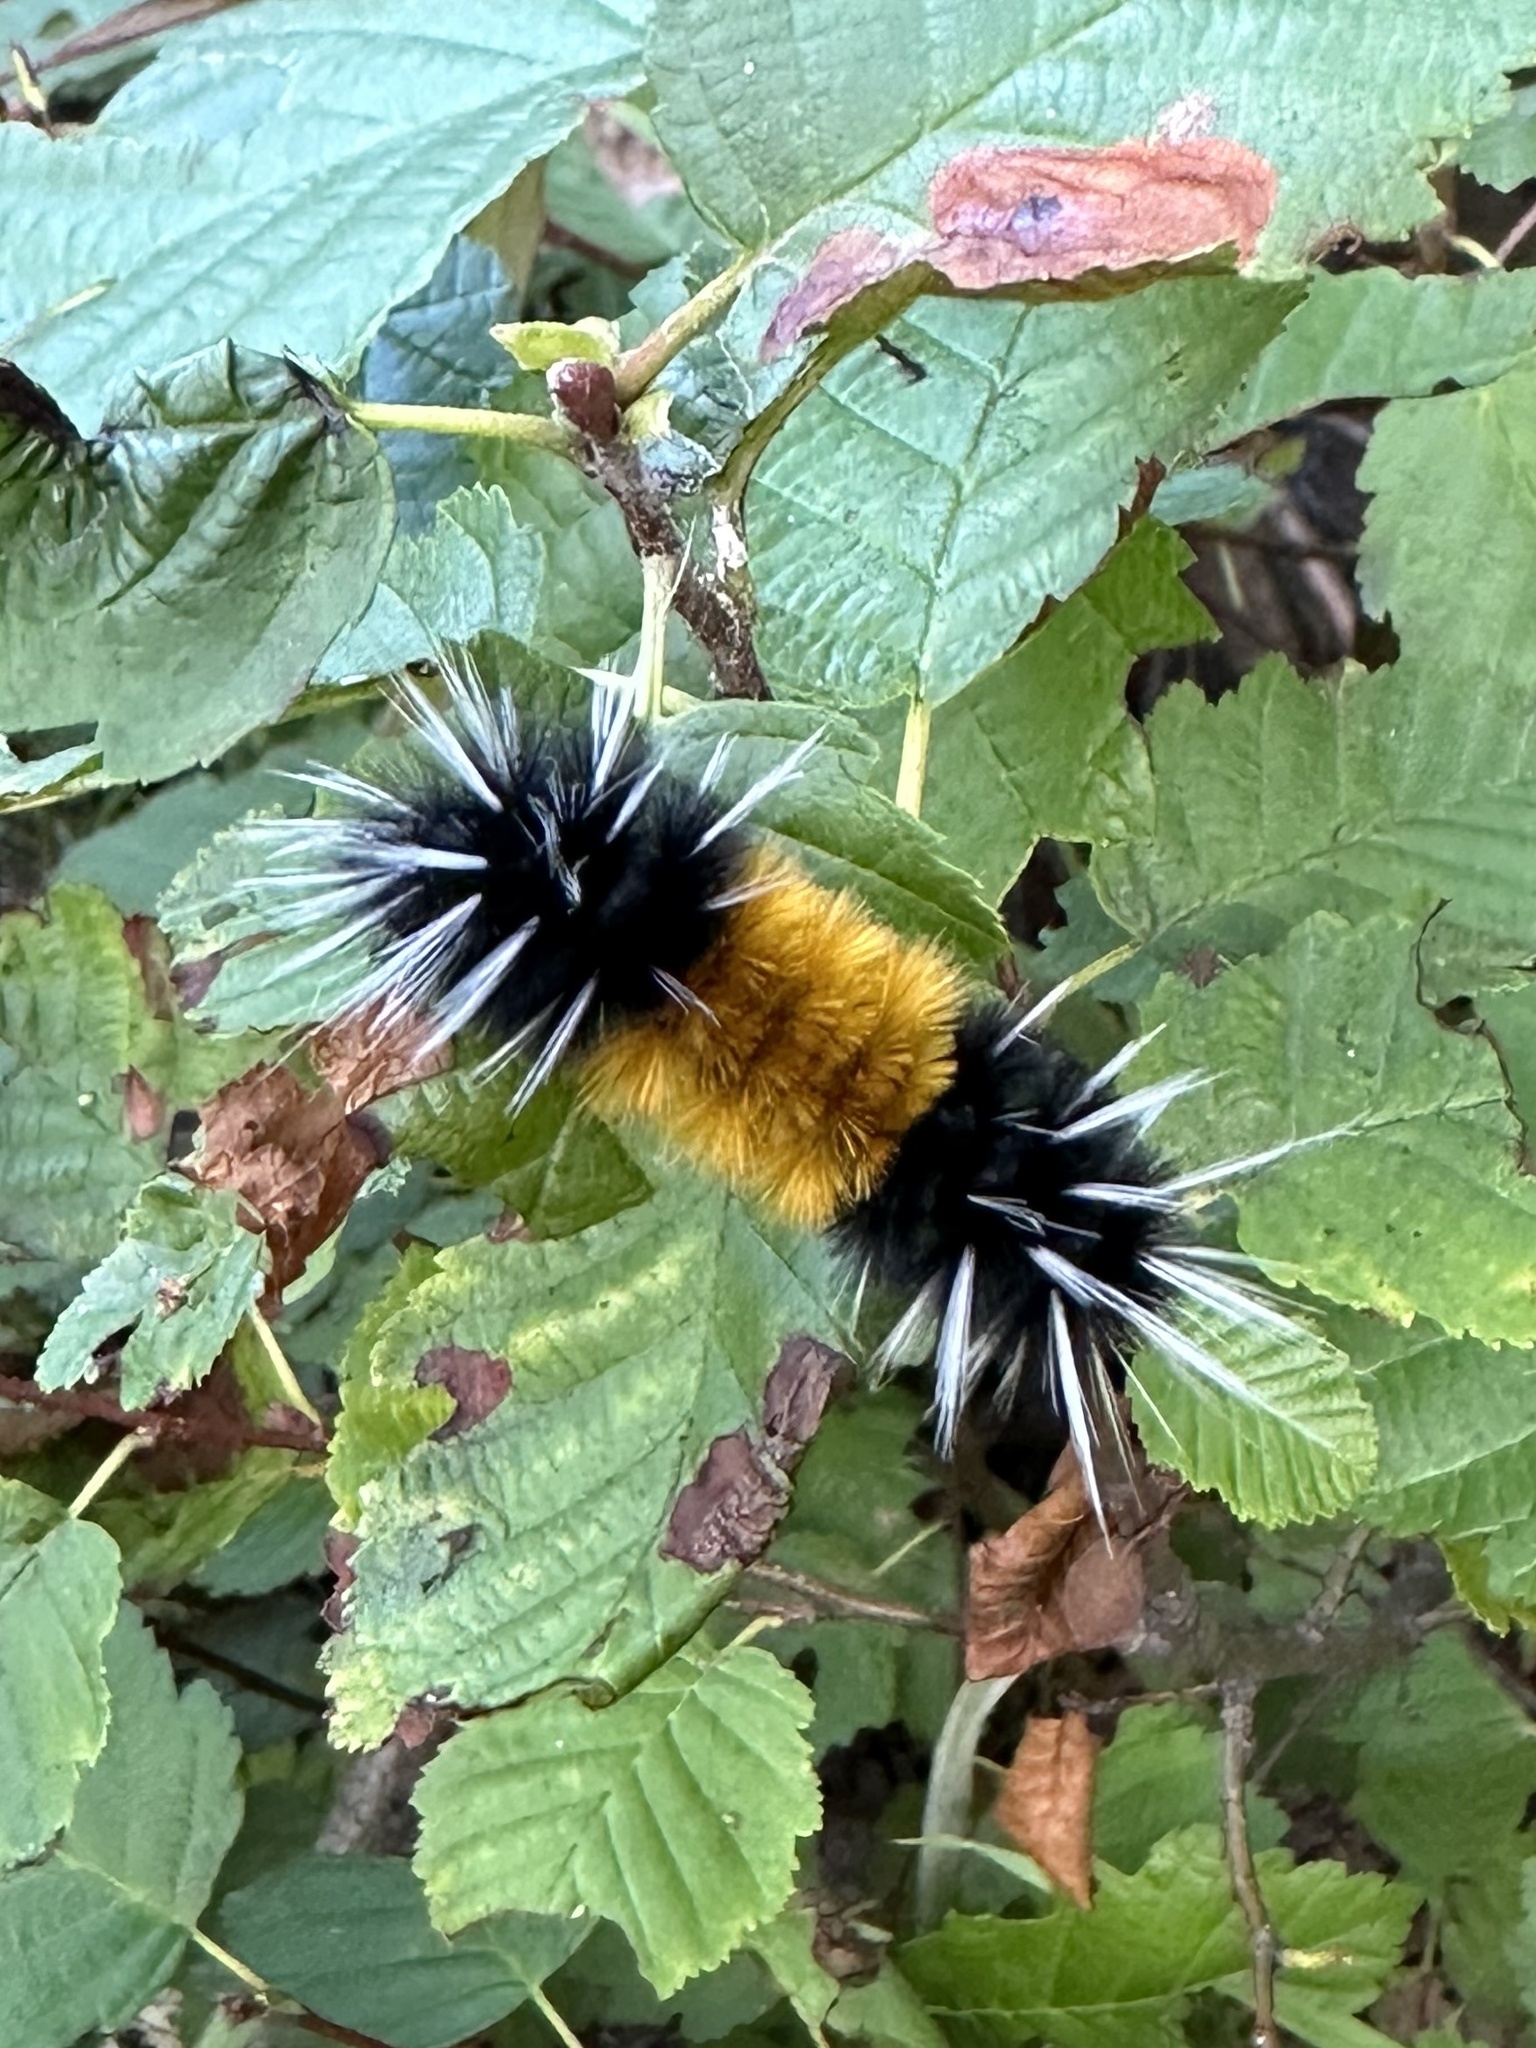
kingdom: Animalia
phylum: Arthropoda
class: Insecta
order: Lepidoptera
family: Erebidae
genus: Lophocampa
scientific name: Lophocampa maculata
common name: Spotted tussock moth
